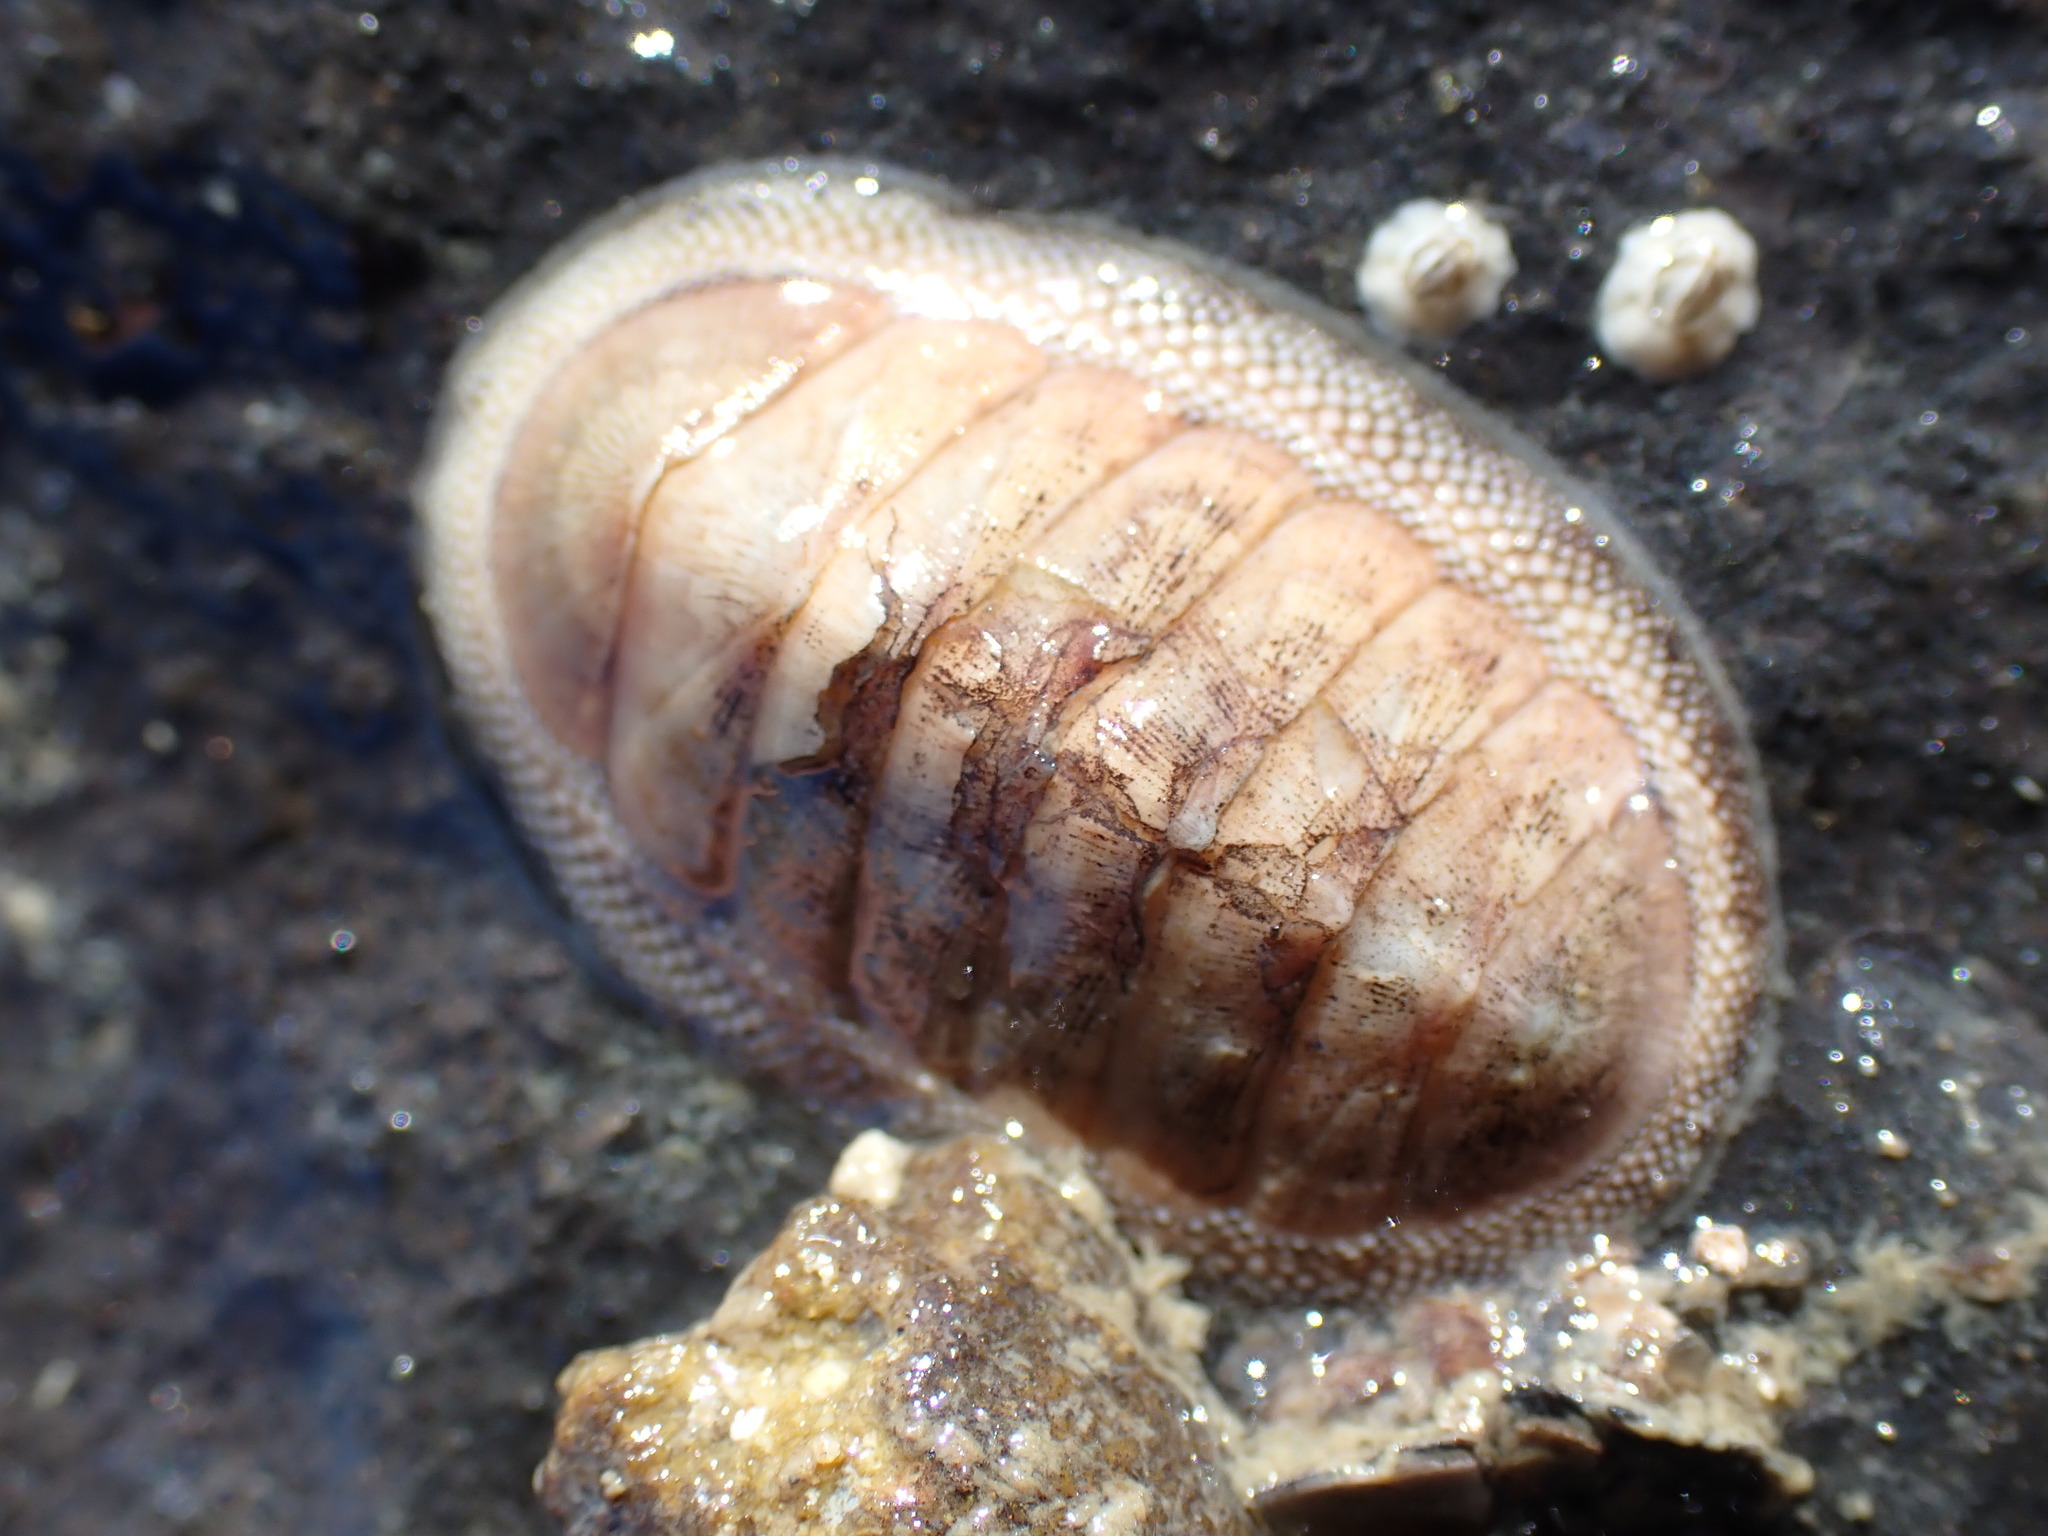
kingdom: Animalia
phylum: Mollusca
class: Polyplacophora
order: Chitonida
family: Chitonidae
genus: Chiton
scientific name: Chiton glaucus
